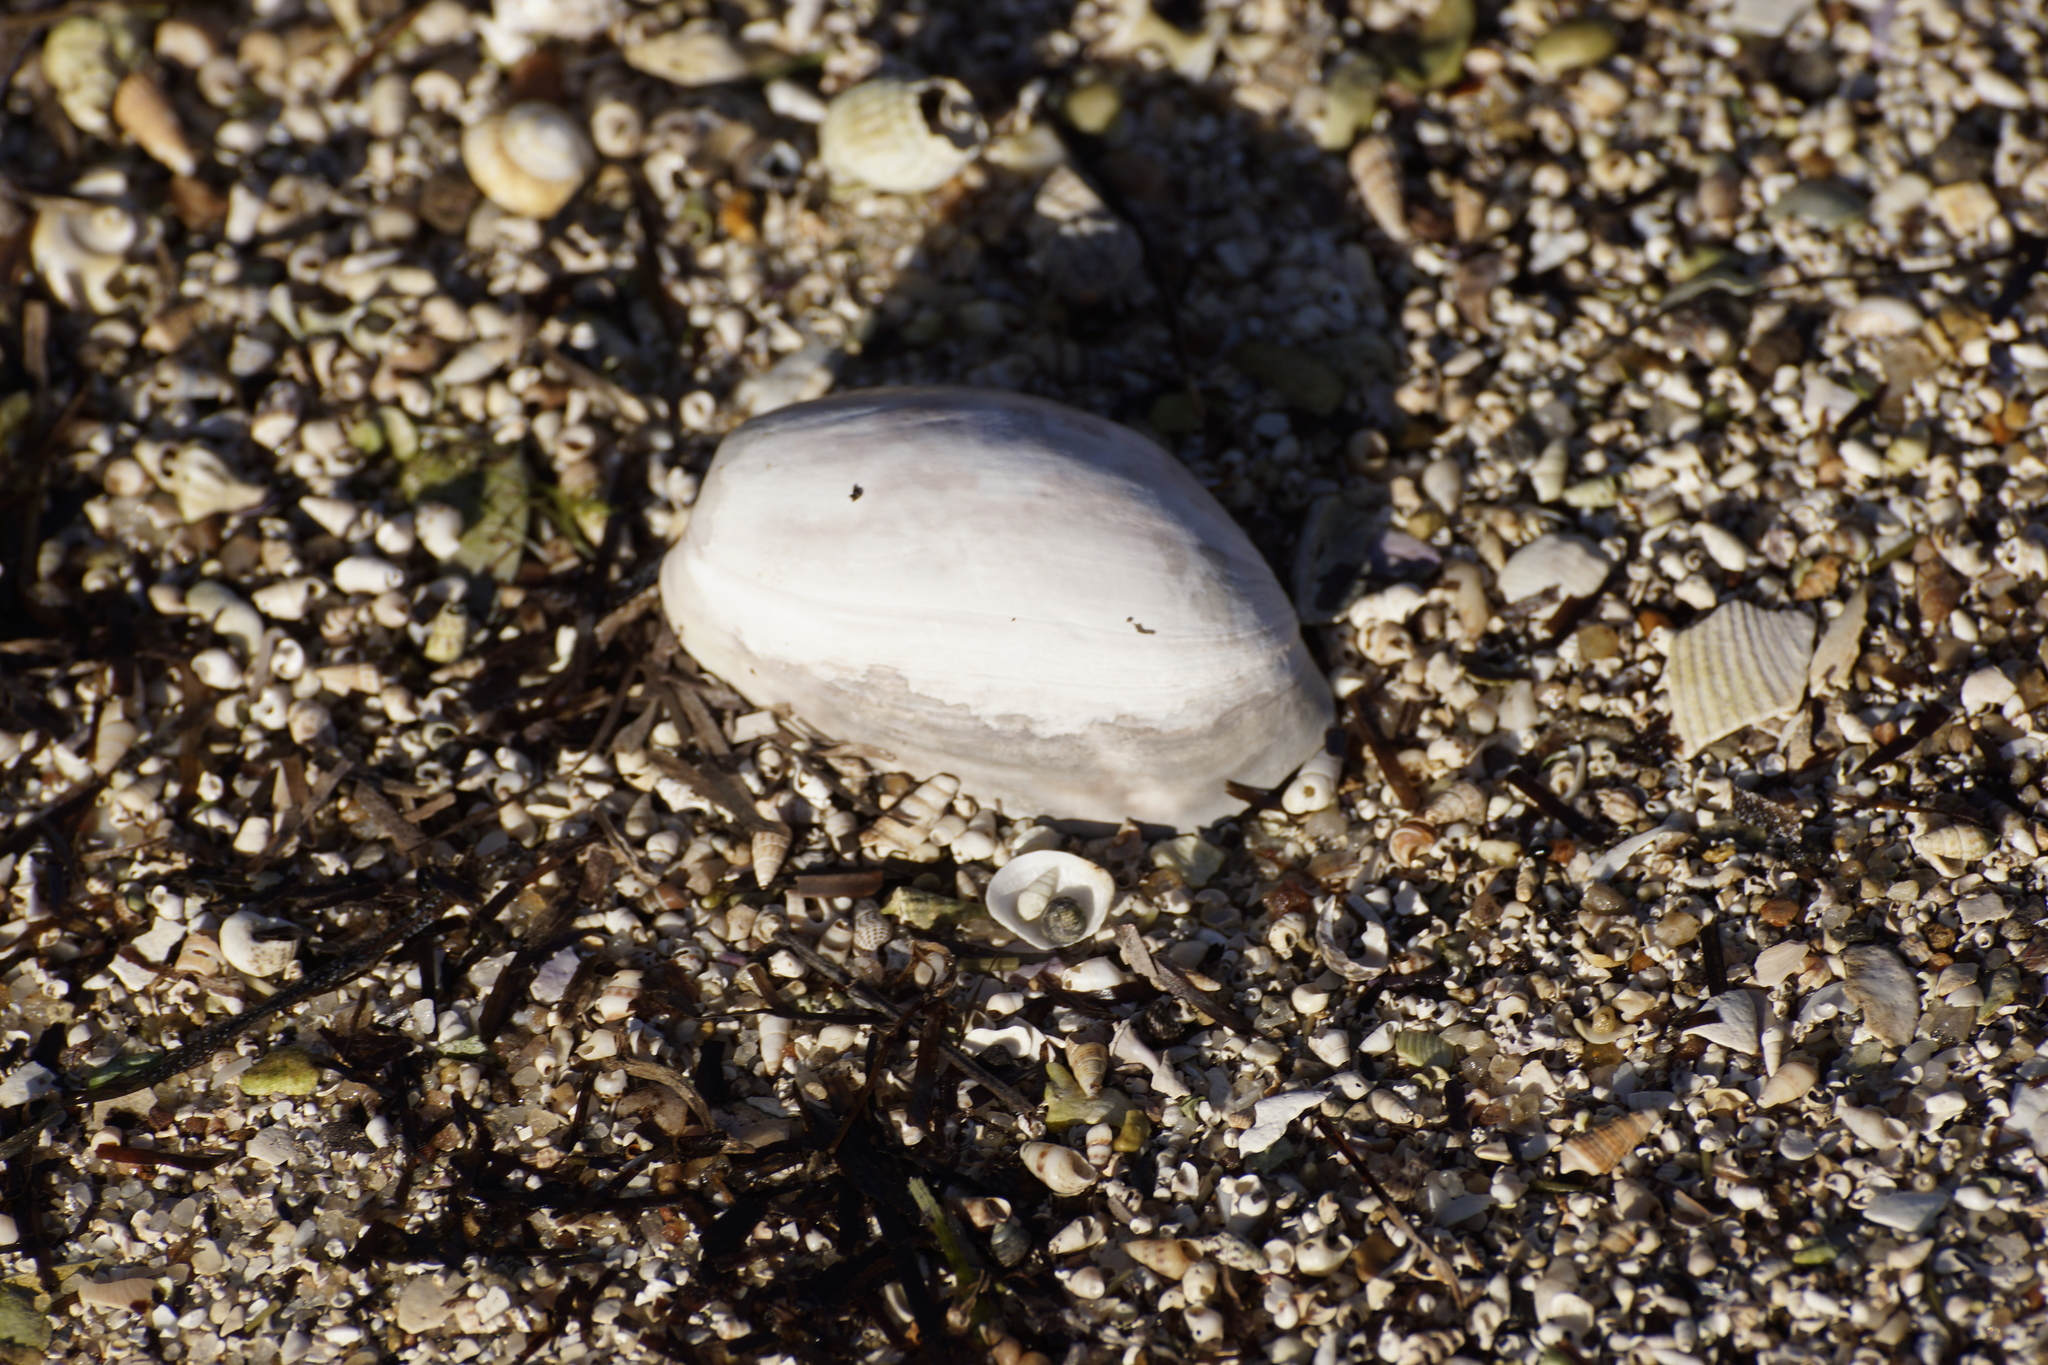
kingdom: Animalia
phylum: Mollusca
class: Gastropoda
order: Cephalaspidea
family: Bullidae
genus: Bulla
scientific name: Bulla quoyii
